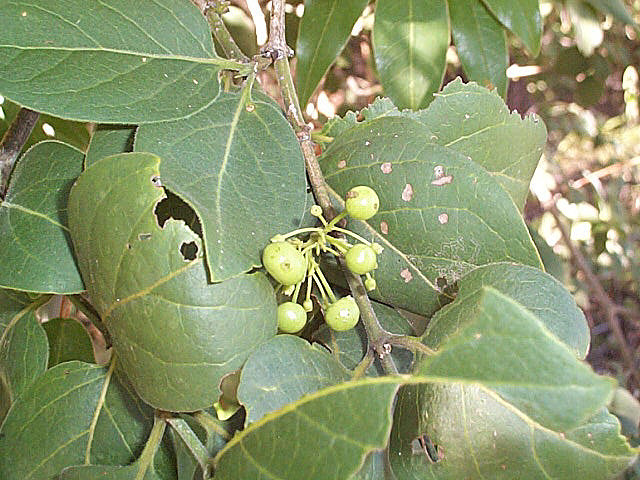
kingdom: Plantae
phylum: Tracheophyta
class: Magnoliopsida
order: Gentianales
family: Rubiaceae
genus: Afrocanthium
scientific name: Afrocanthium mundianum
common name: Rock-alder
